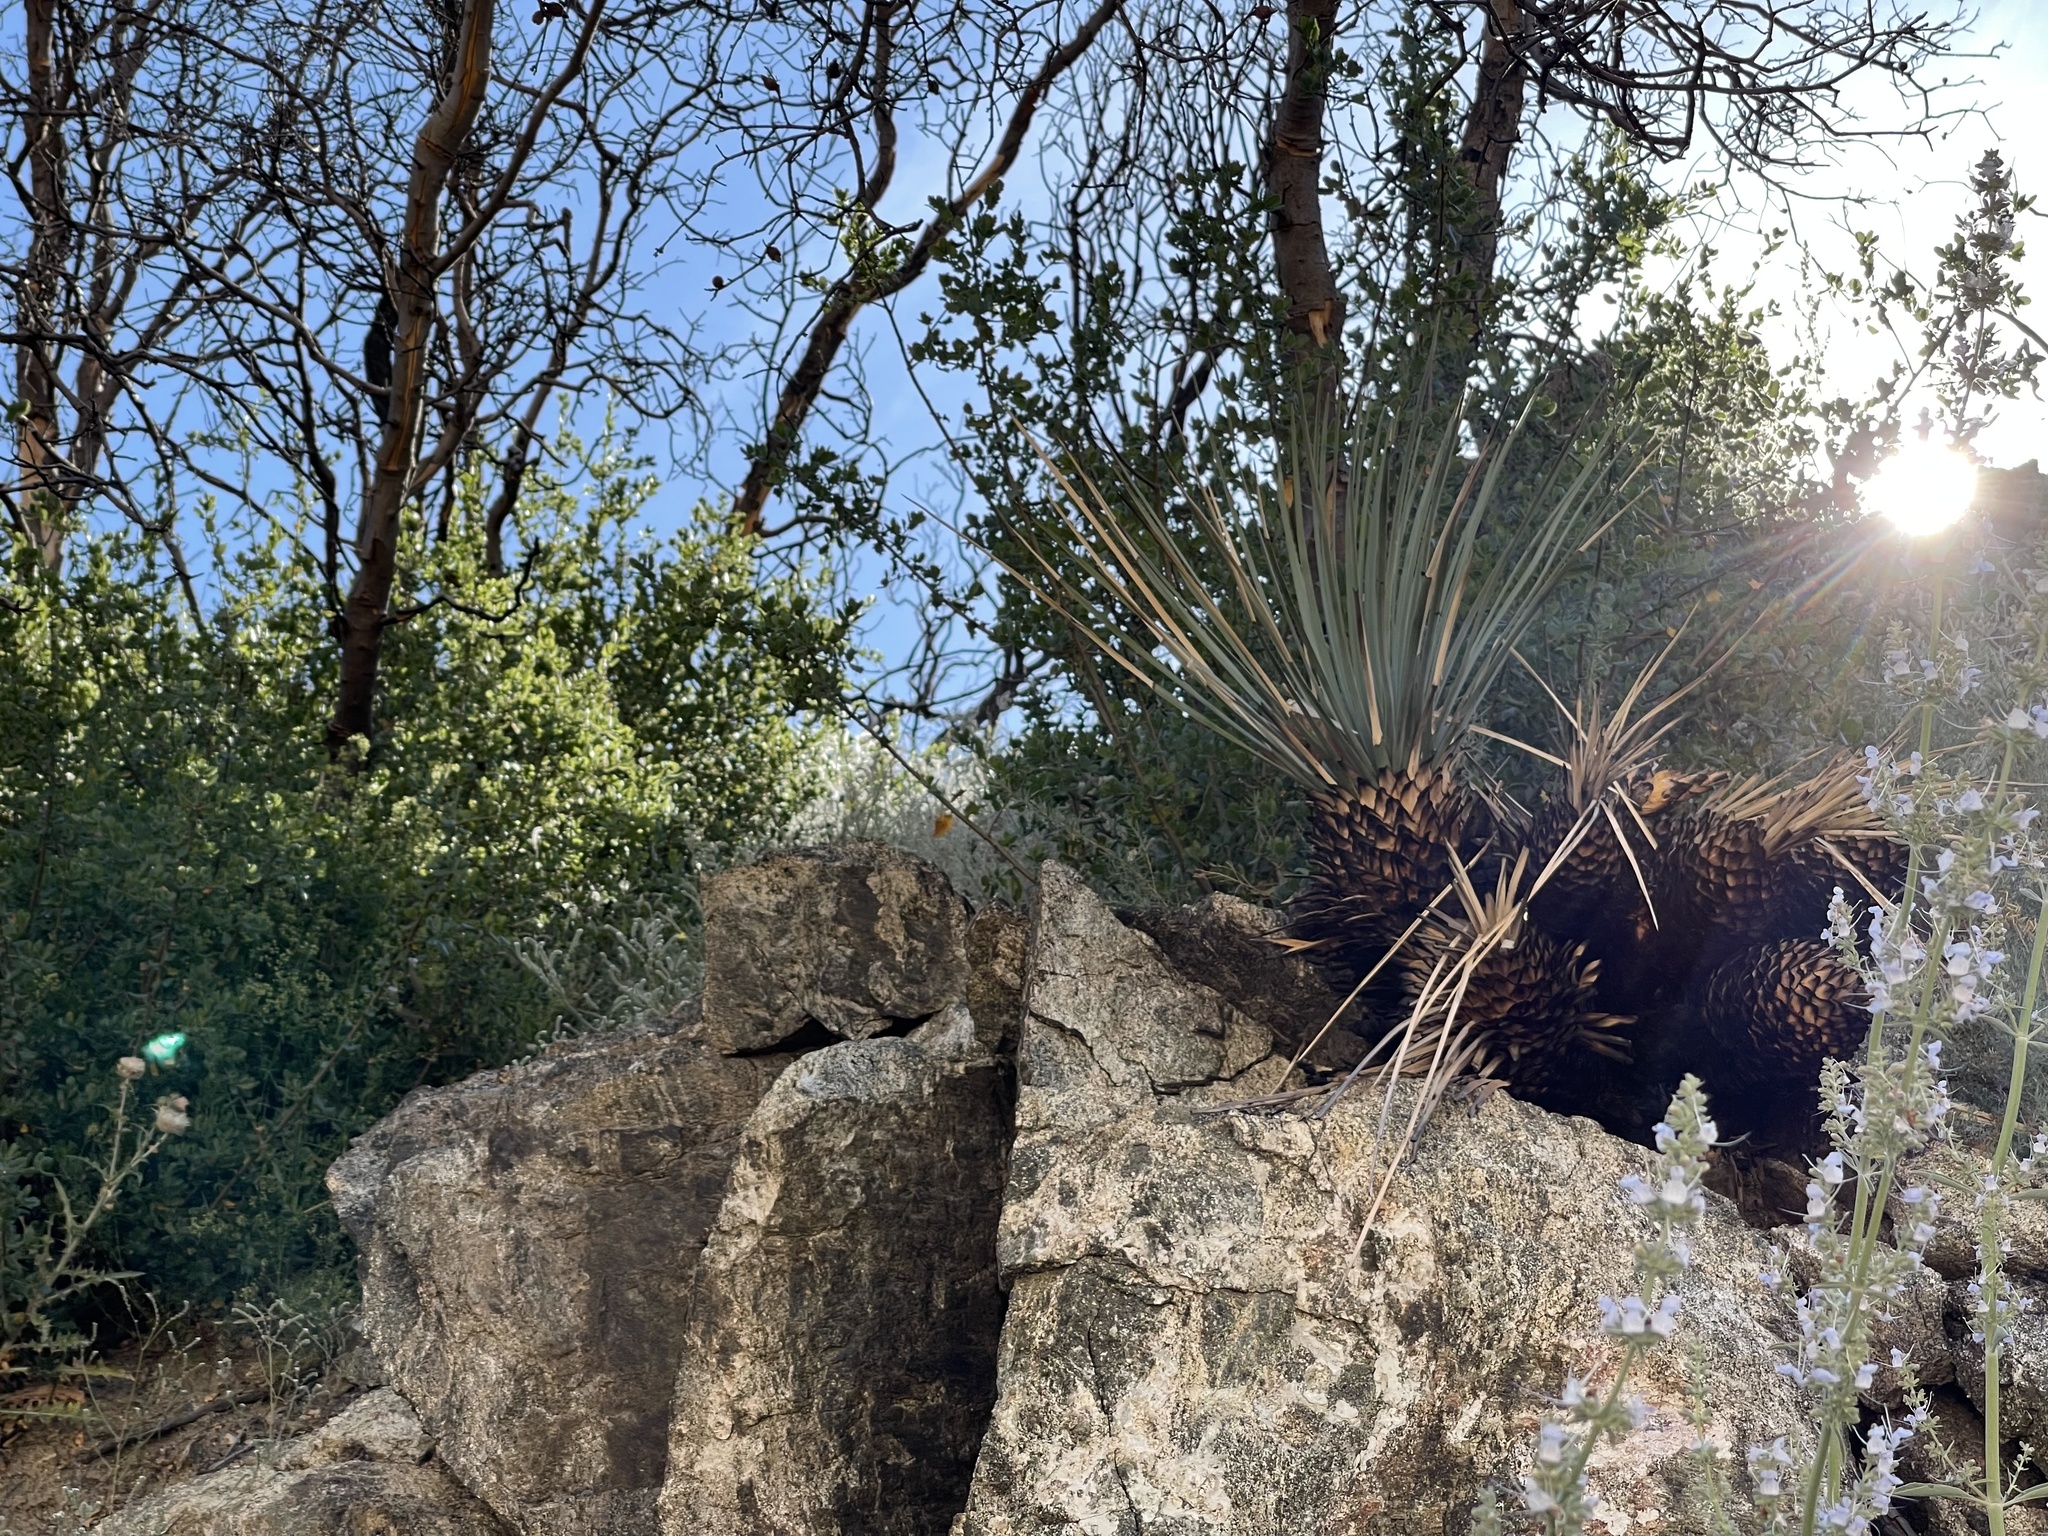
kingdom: Plantae
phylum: Tracheophyta
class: Liliopsida
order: Asparagales
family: Asparagaceae
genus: Hesperoyucca
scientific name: Hesperoyucca whipplei
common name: Our lord's-candle
